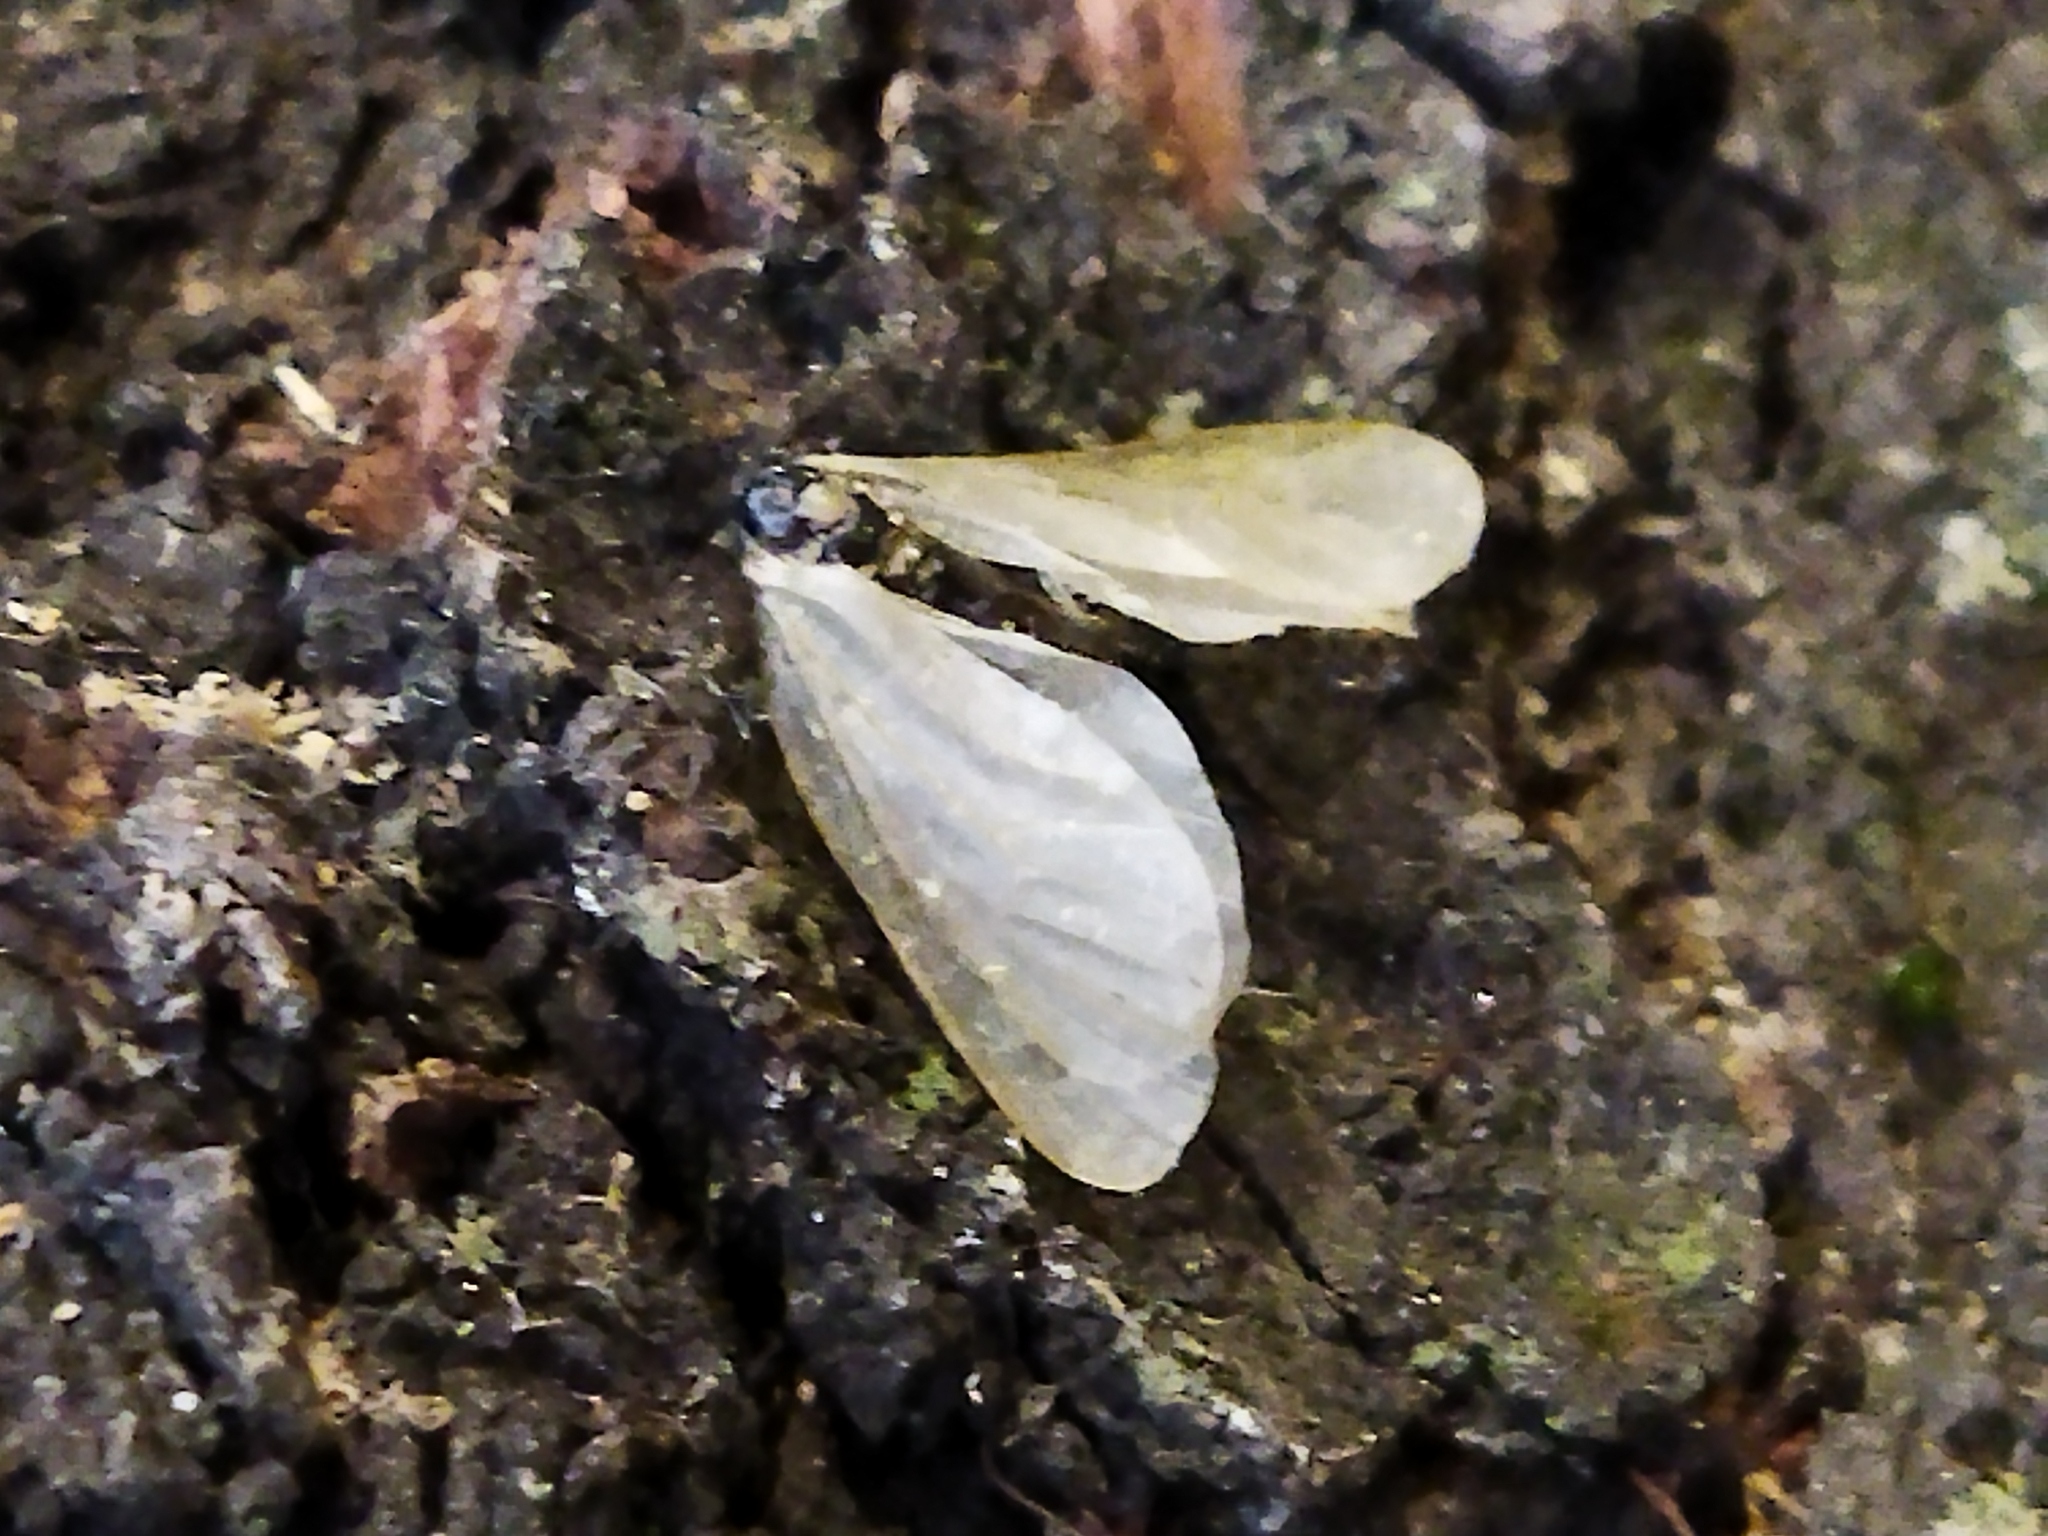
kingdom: Animalia
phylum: Arthropoda
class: Insecta
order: Lepidoptera
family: Psychidae
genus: Rebelia
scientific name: Rebelia perlucidella
